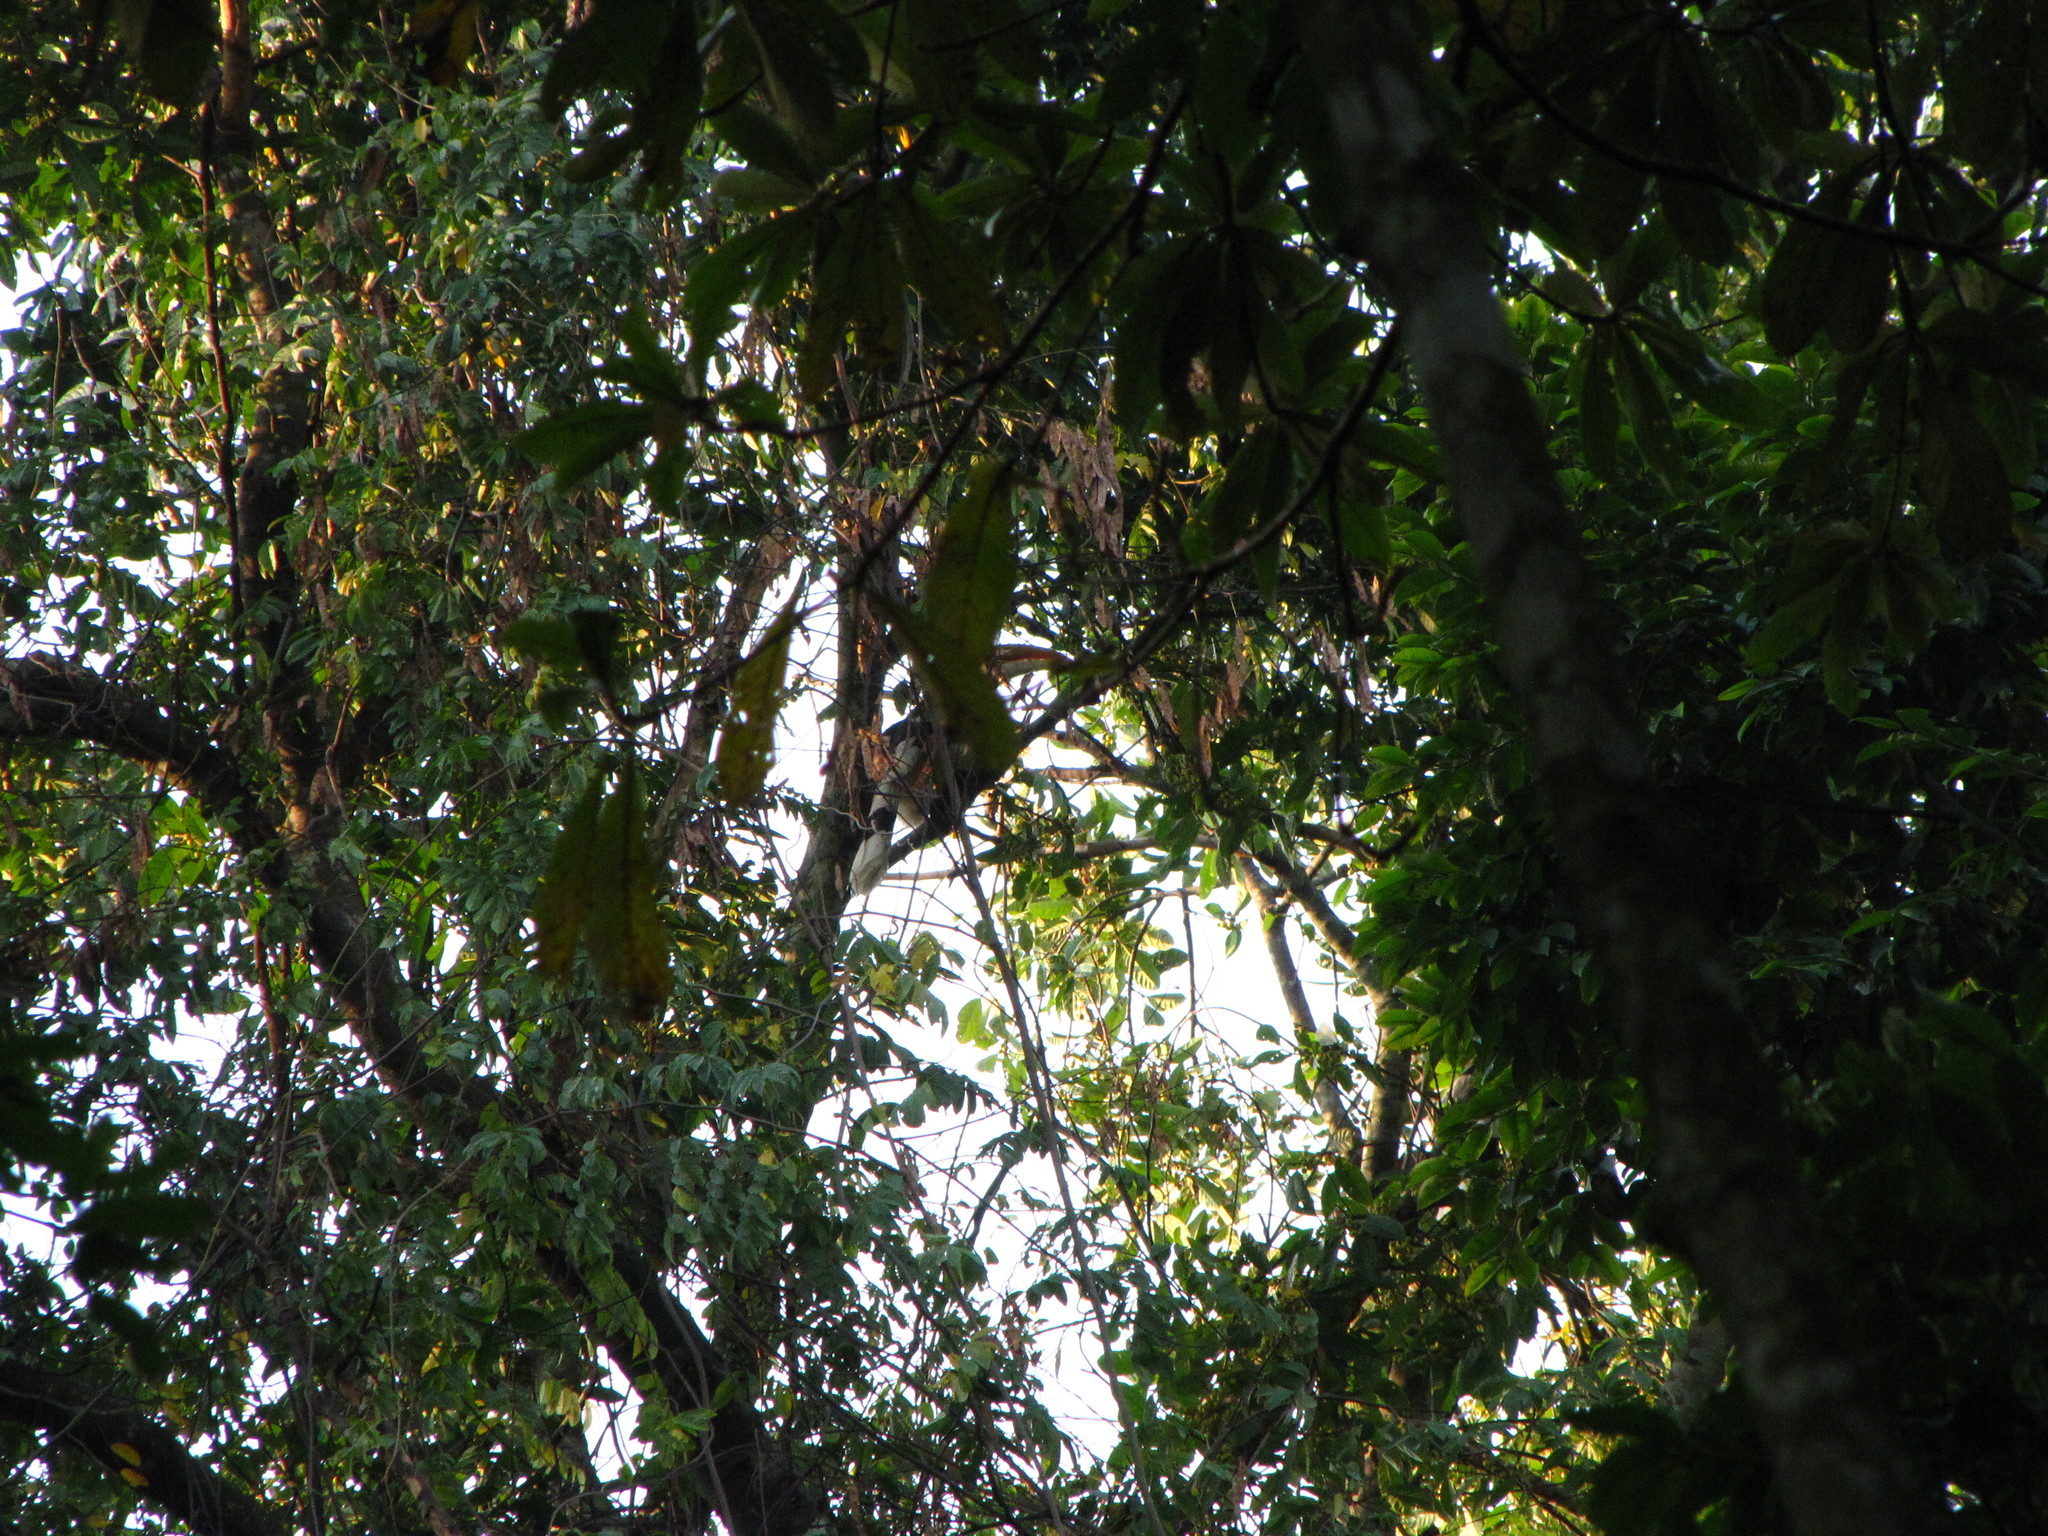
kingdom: Animalia
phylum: Chordata
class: Aves
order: Bucerotiformes
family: Bucerotidae
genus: Buceros
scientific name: Buceros bicornis
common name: Great hornbill
